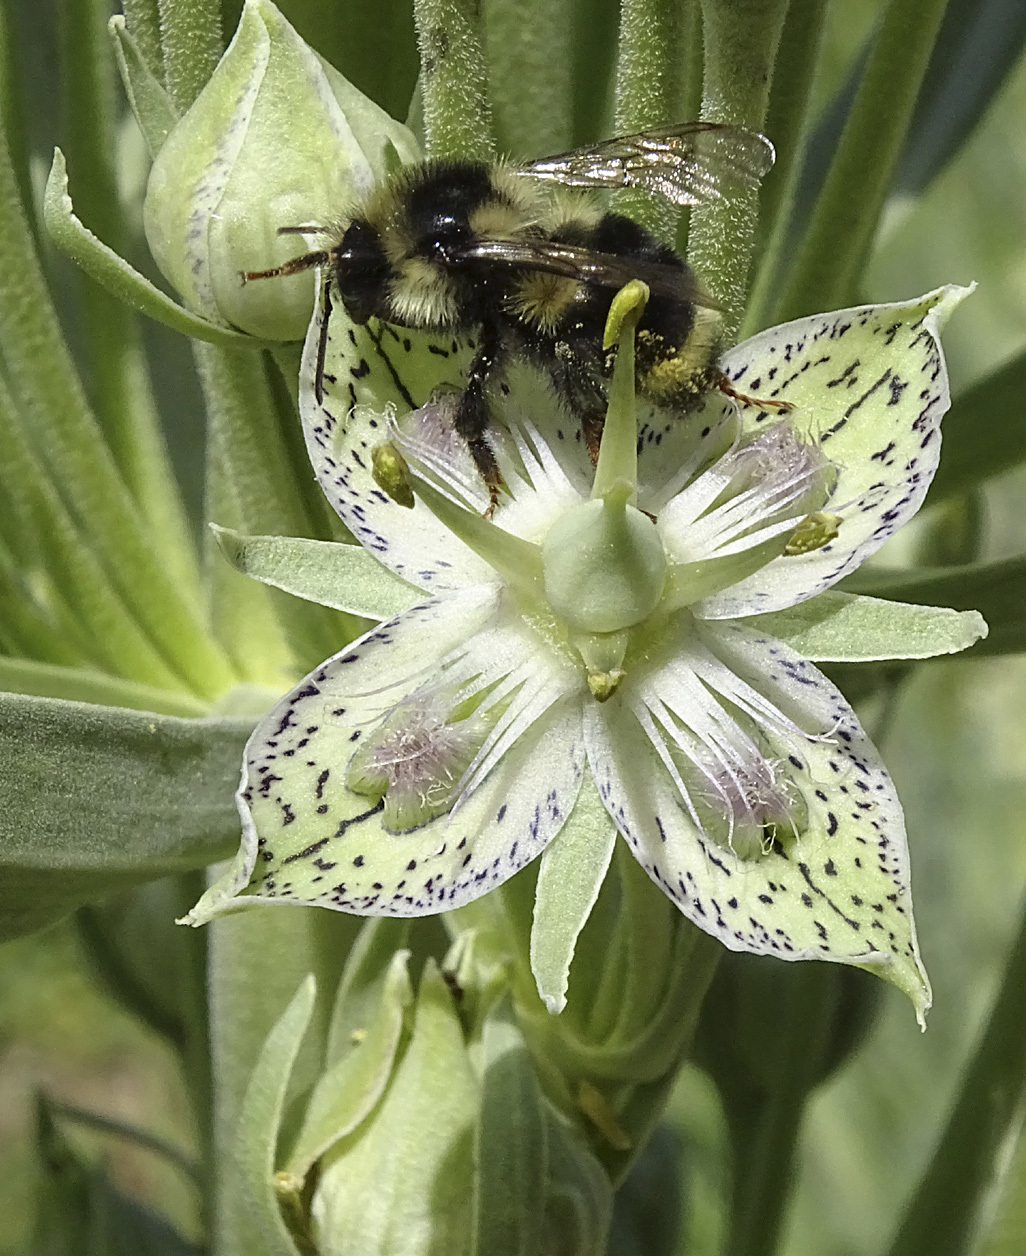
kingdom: Animalia
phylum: Arthropoda
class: Insecta
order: Hymenoptera
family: Apidae
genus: Bombus
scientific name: Bombus vancouverensis
